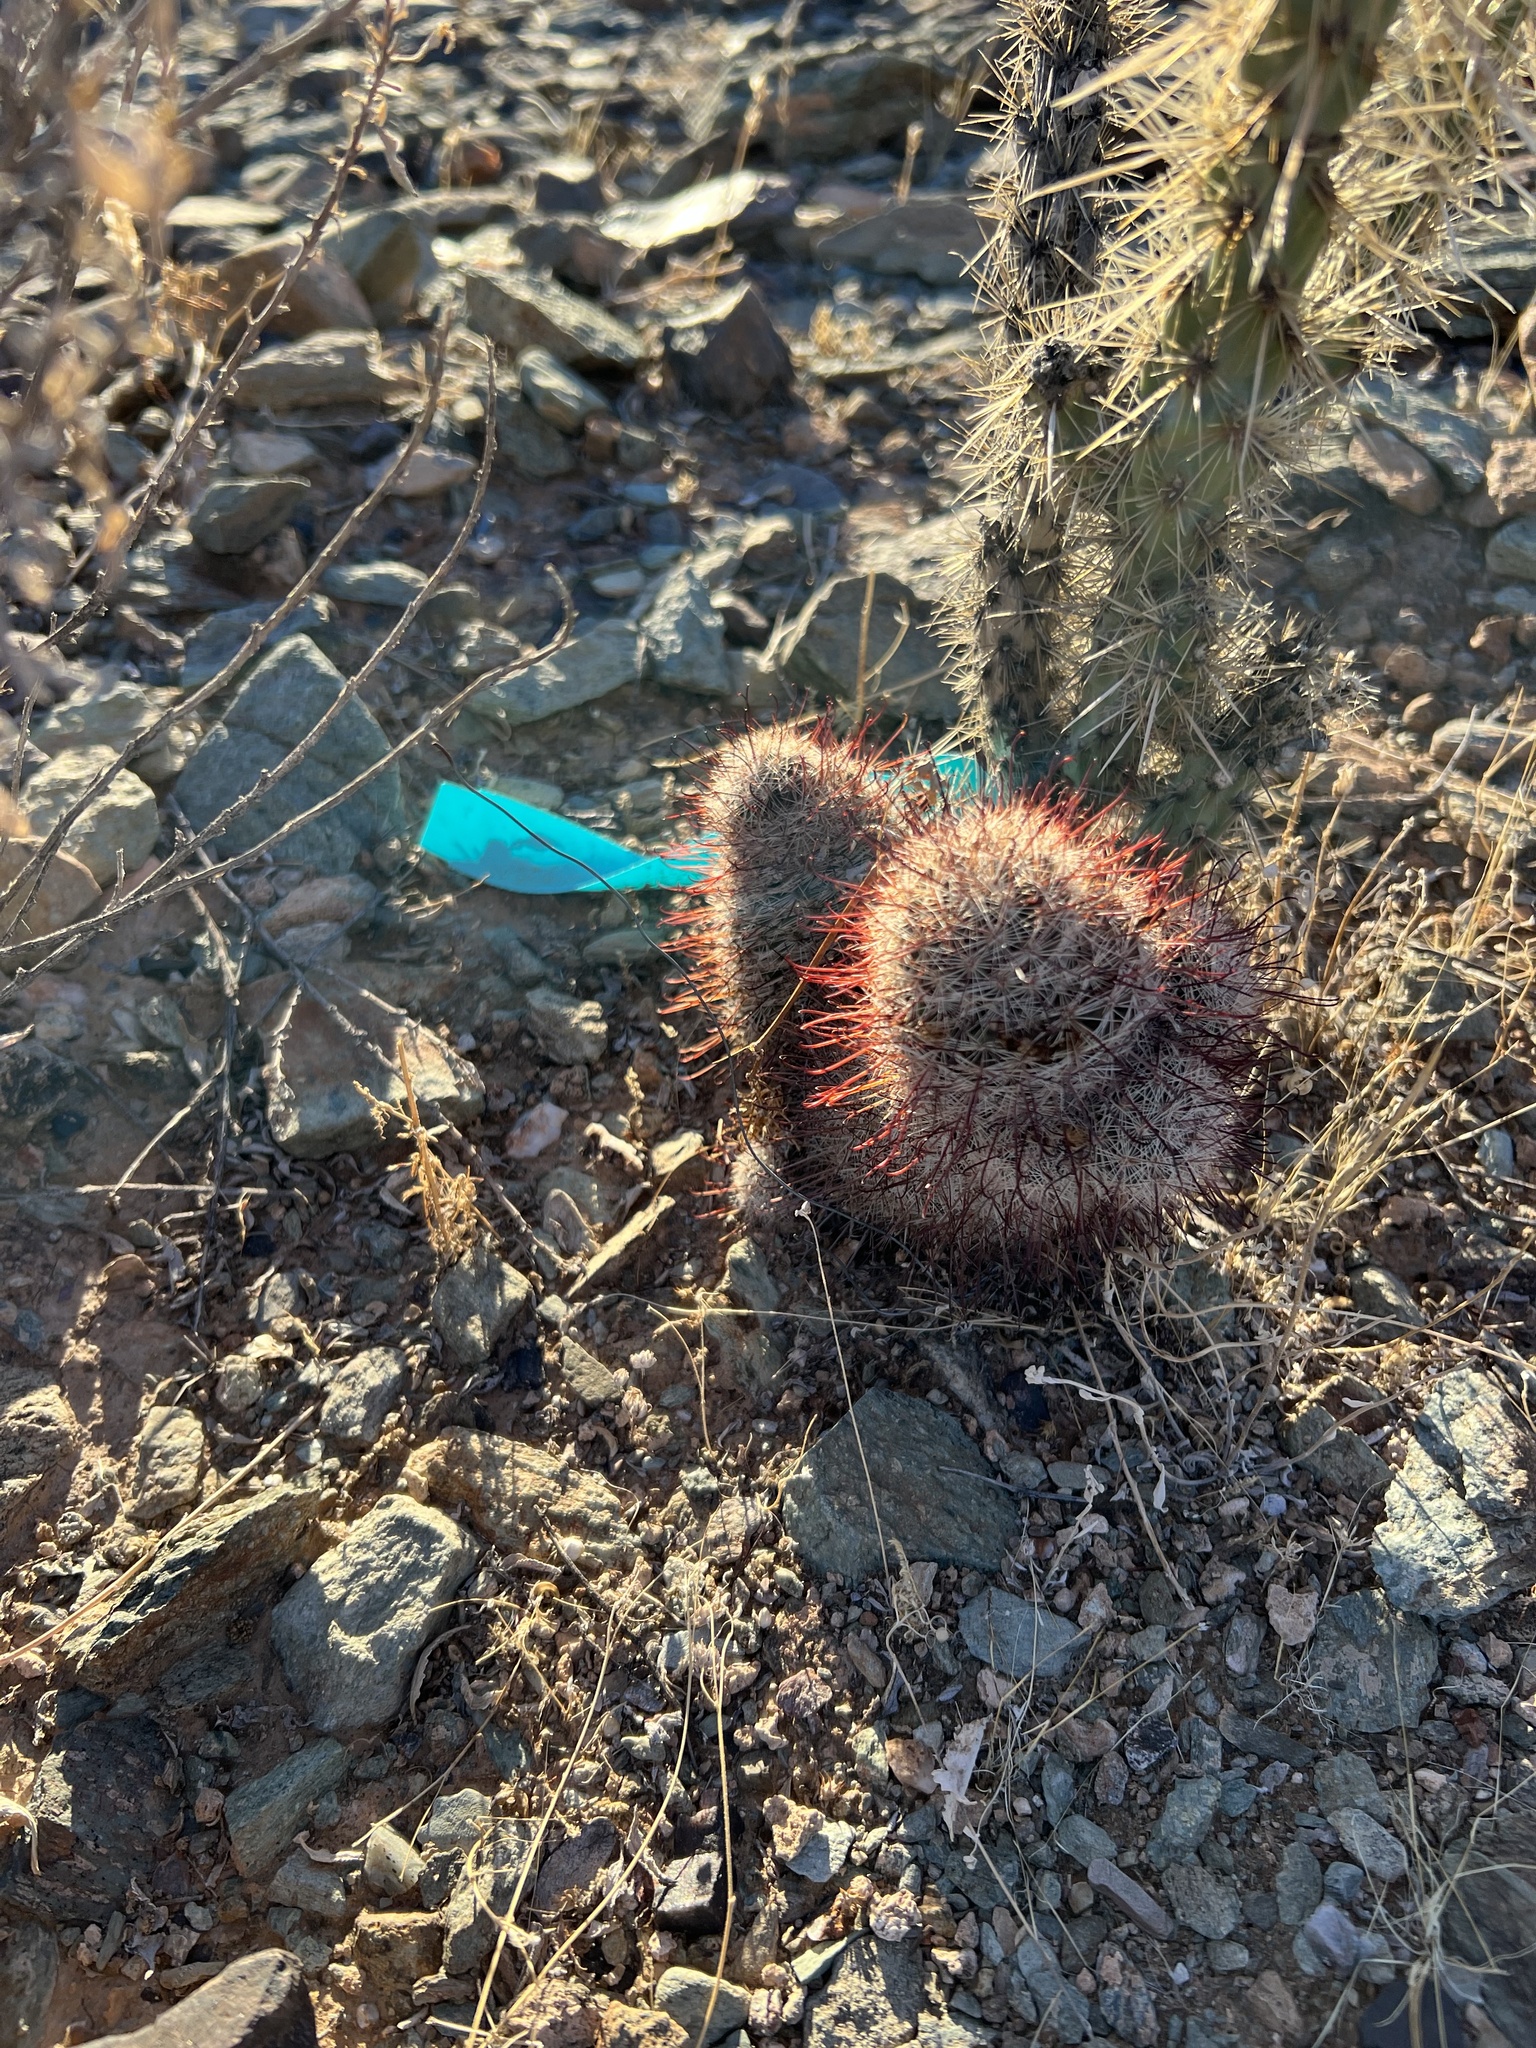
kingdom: Plantae
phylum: Tracheophyta
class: Magnoliopsida
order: Caryophyllales
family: Cactaceae
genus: Cochemiea
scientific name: Cochemiea grahamii
